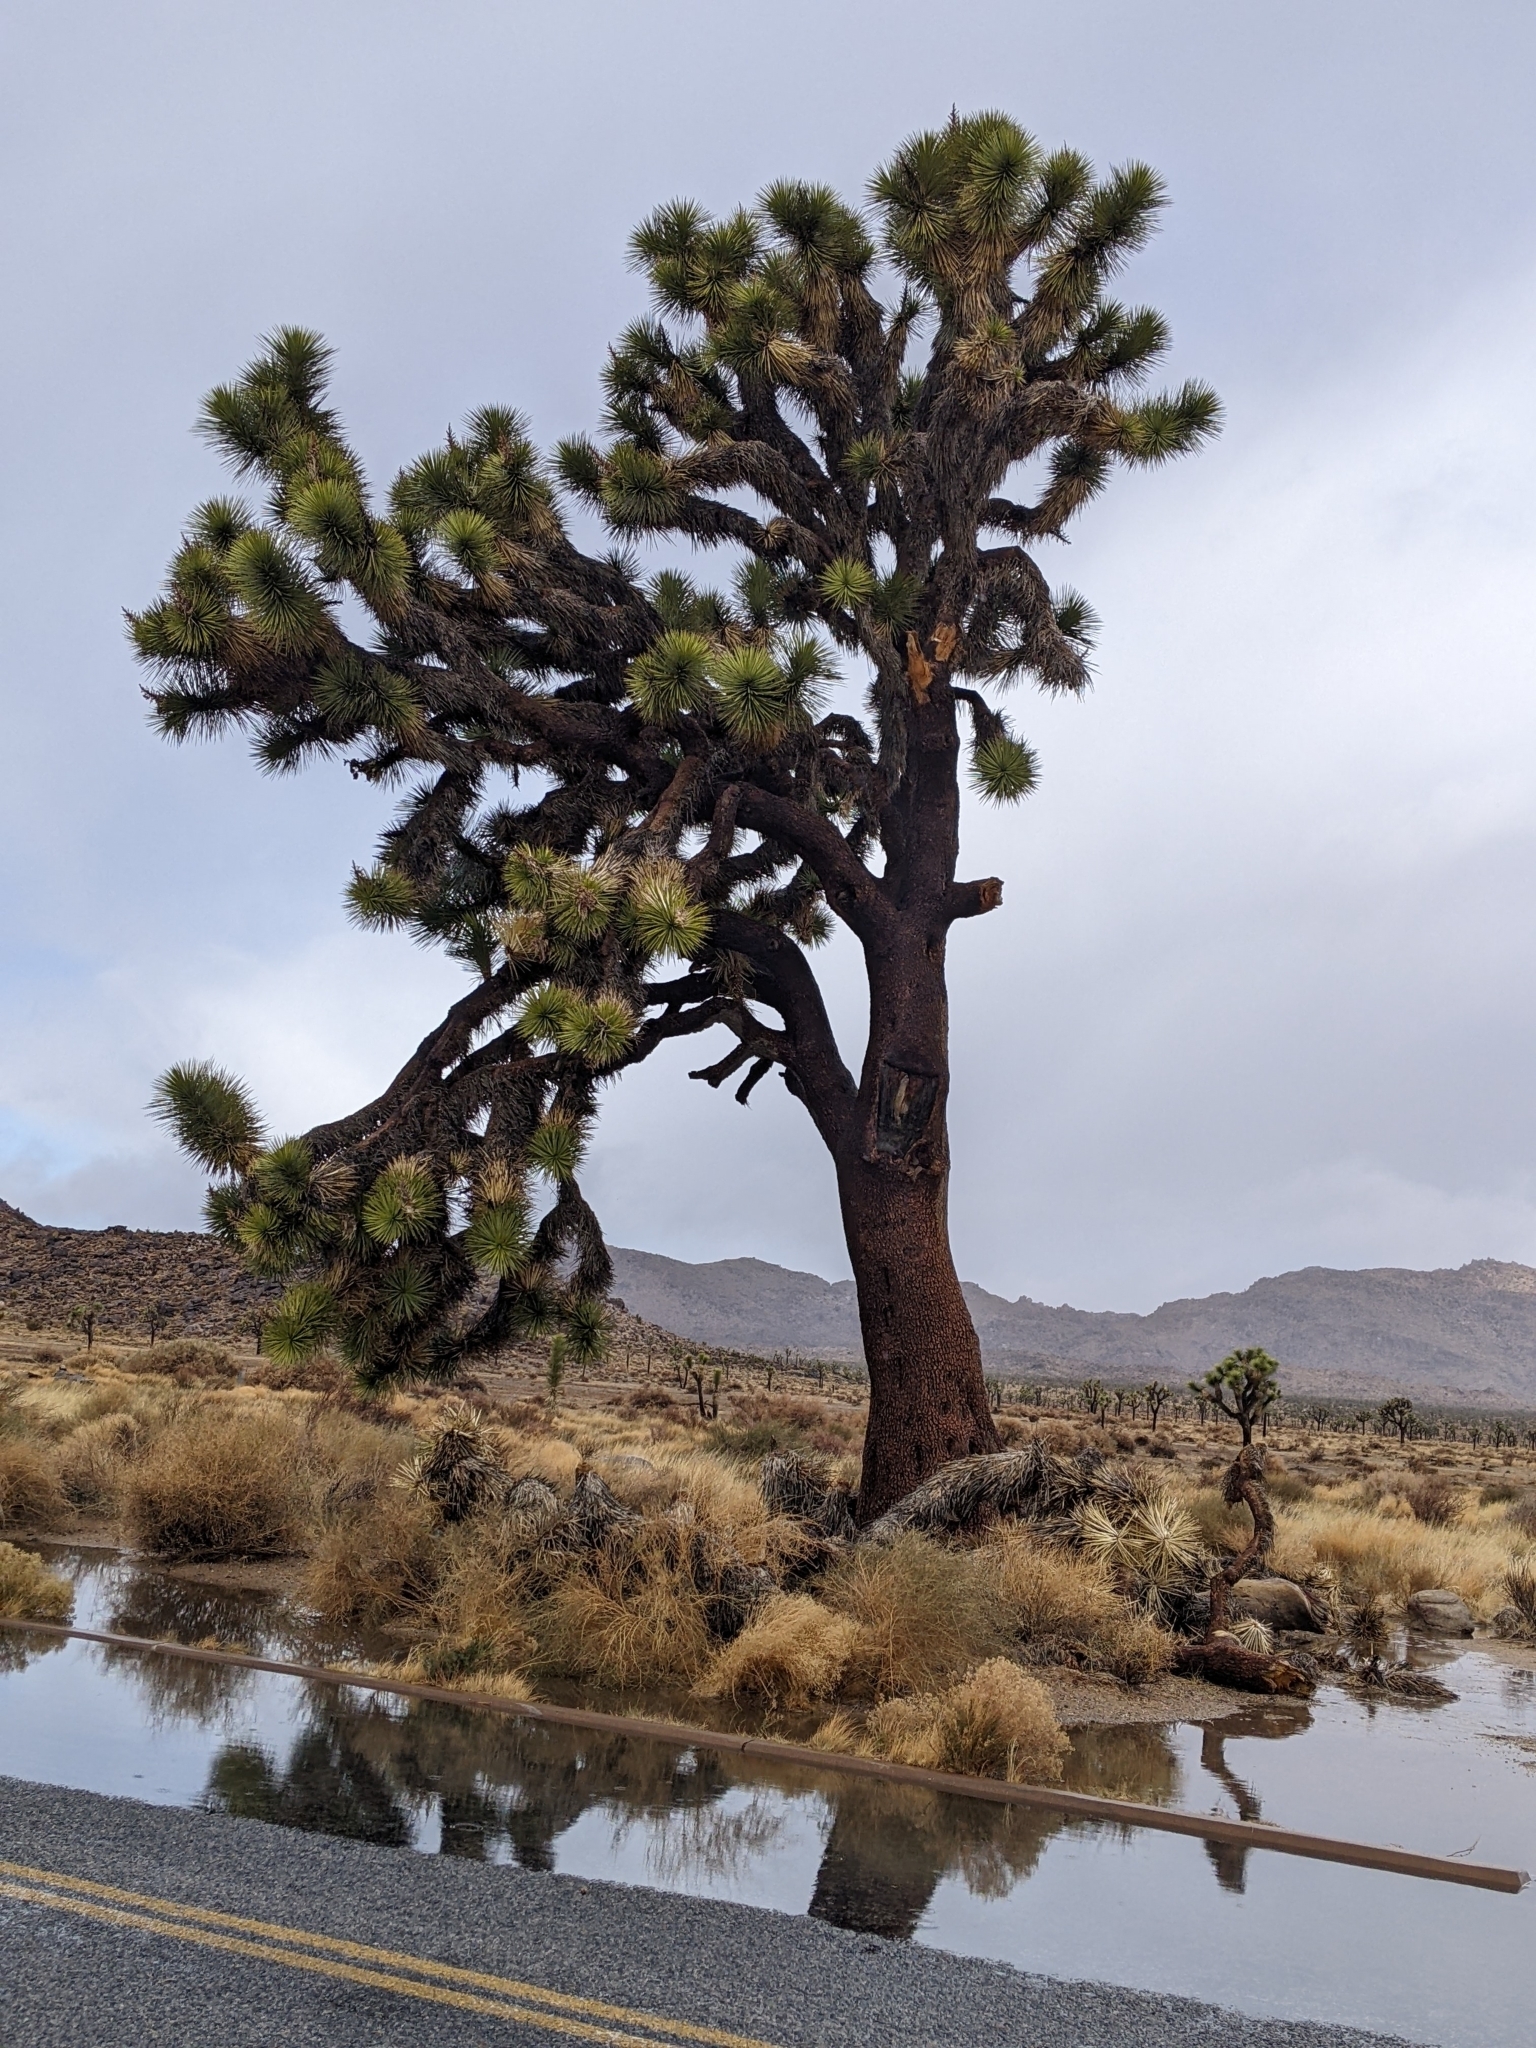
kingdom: Plantae
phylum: Tracheophyta
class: Liliopsida
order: Asparagales
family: Asparagaceae
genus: Yucca
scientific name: Yucca brevifolia
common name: Joshua tree
